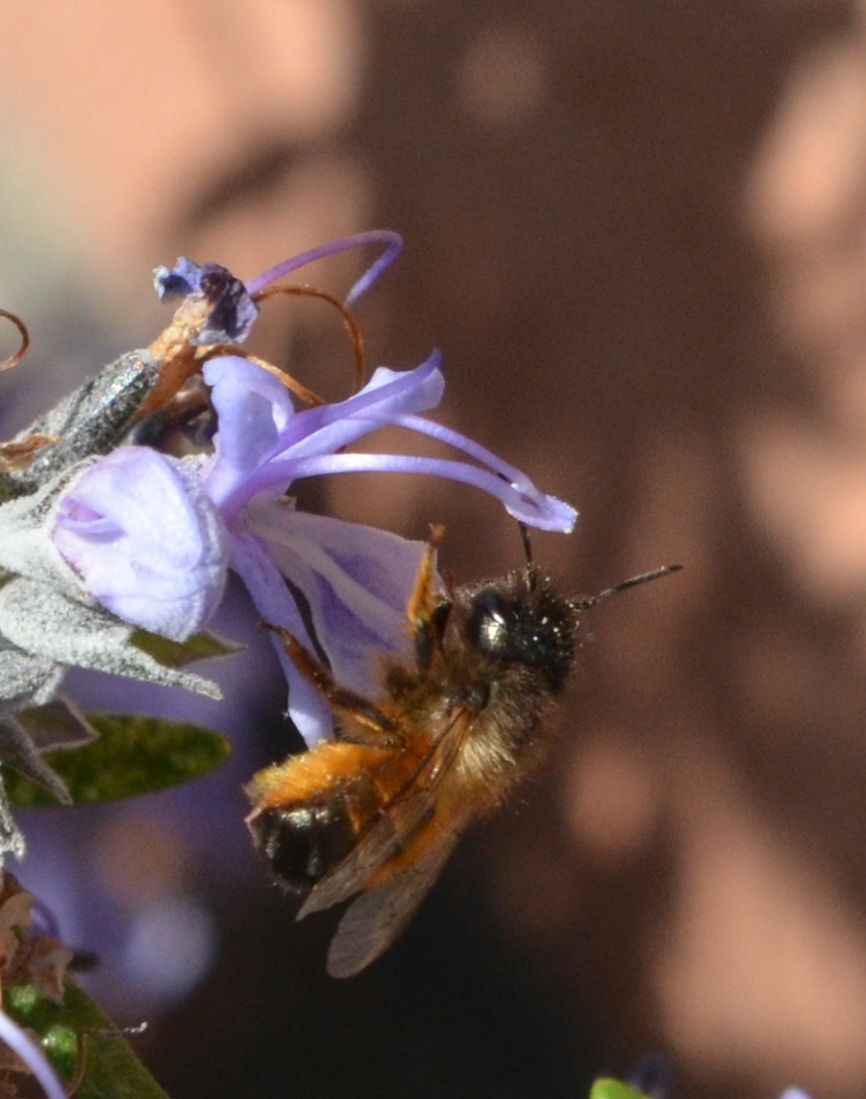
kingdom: Animalia
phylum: Arthropoda
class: Insecta
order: Hymenoptera
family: Megachilidae
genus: Osmia
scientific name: Osmia bicornis
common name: Red mason bee
